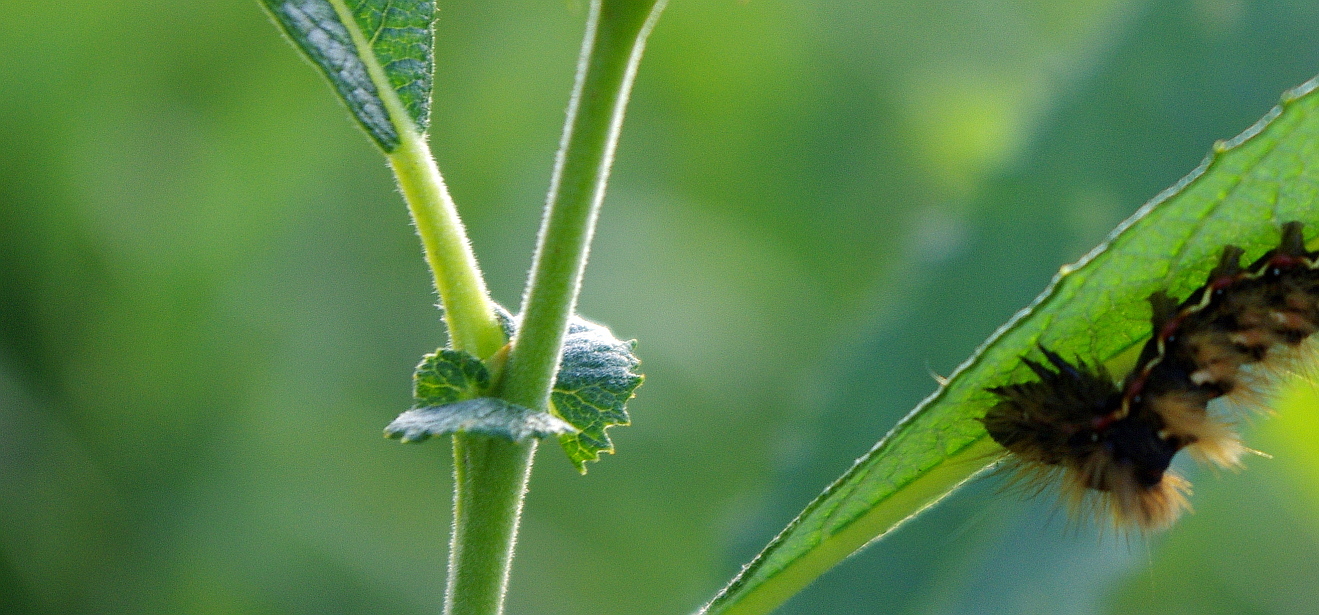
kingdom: Plantae
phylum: Tracheophyta
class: Magnoliopsida
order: Malpighiales
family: Salicaceae
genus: Salix
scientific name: Salix cinerea
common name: Common sallow
